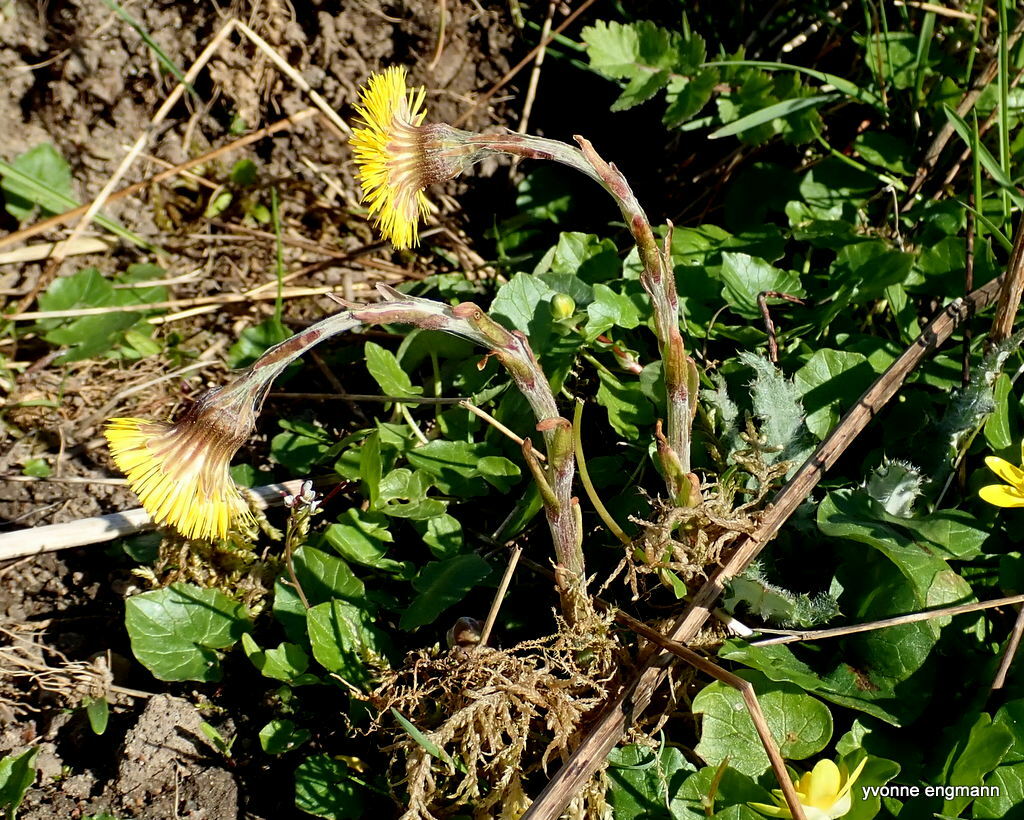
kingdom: Plantae
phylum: Tracheophyta
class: Magnoliopsida
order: Asterales
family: Asteraceae
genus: Tussilago
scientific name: Tussilago farfara
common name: Coltsfoot
